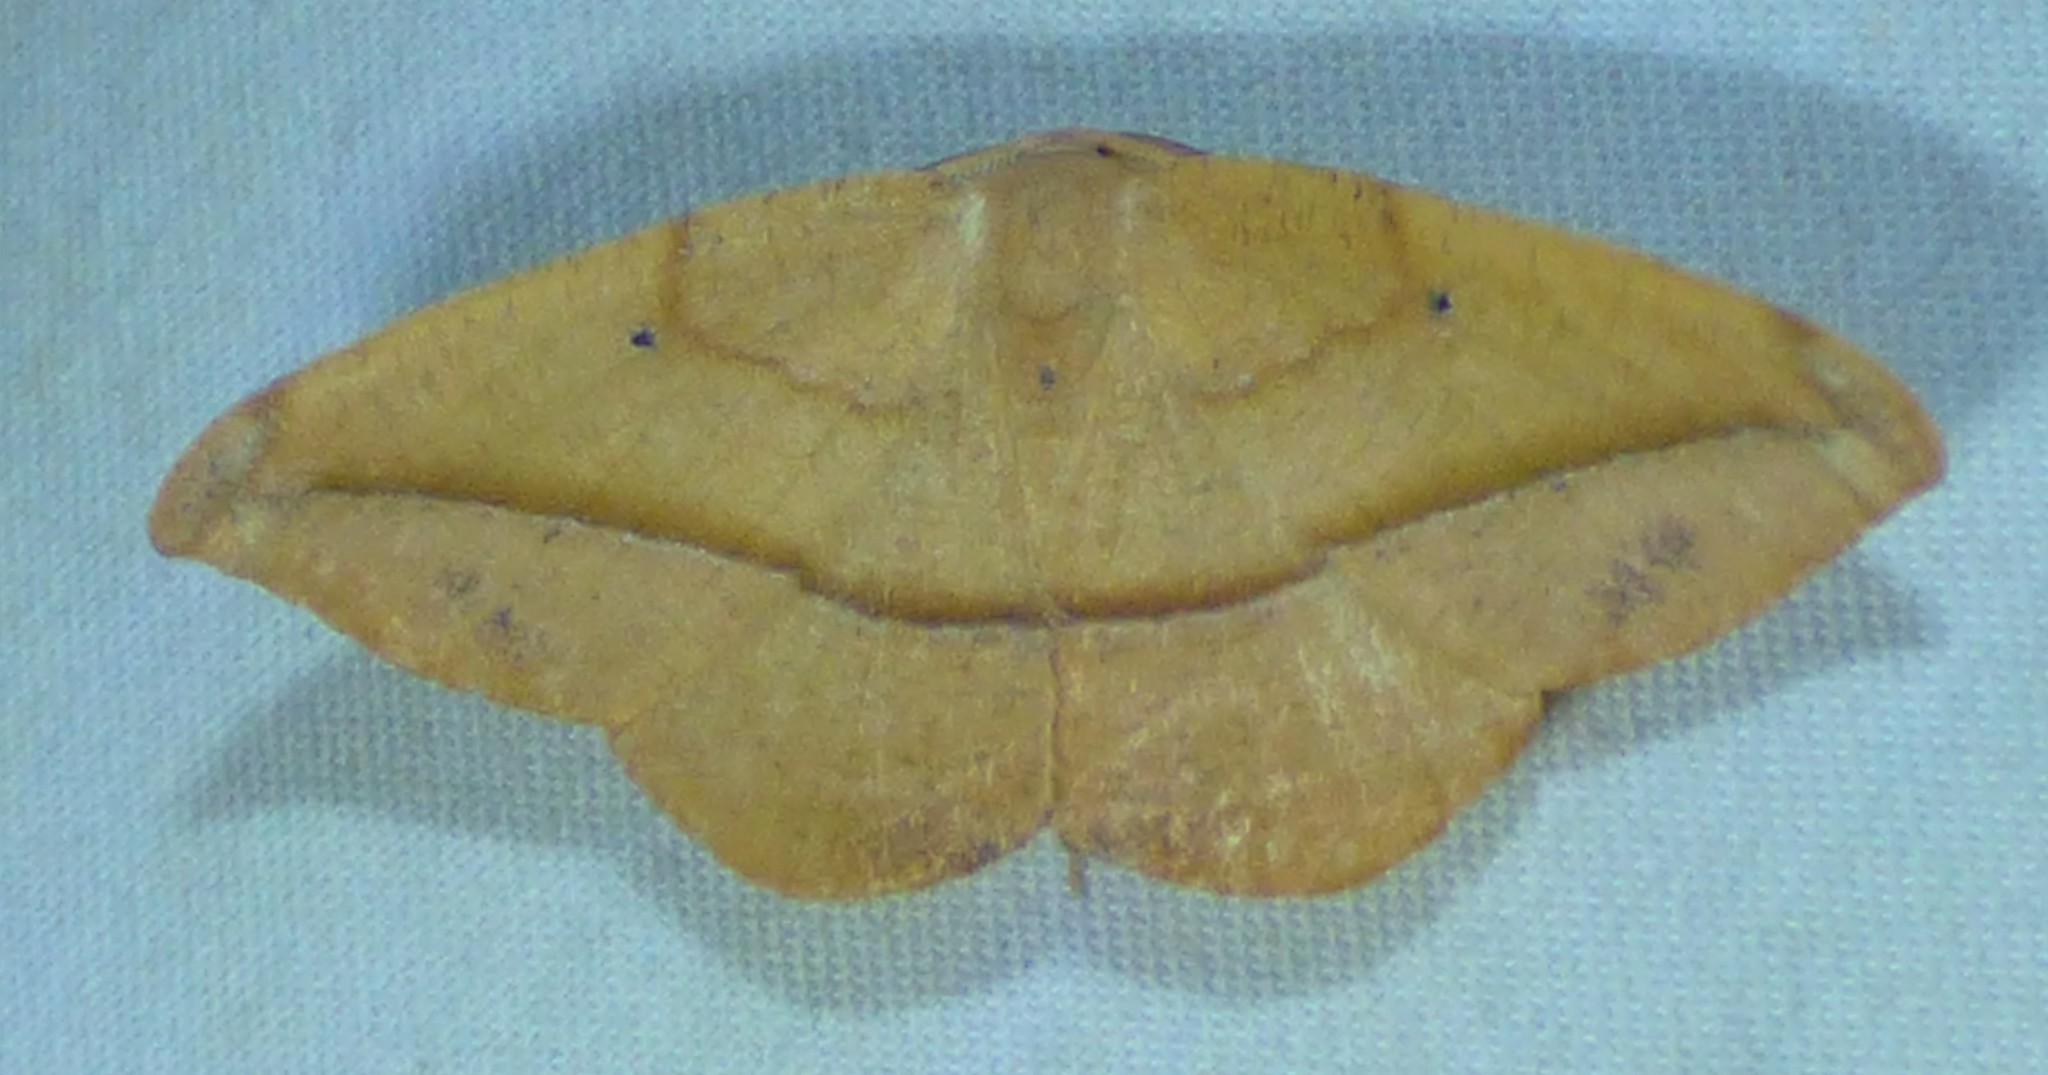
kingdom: Animalia
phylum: Arthropoda
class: Insecta
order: Lepidoptera
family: Geometridae
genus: Patalene
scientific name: Patalene olyzonaria
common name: Juniper geometer moth
